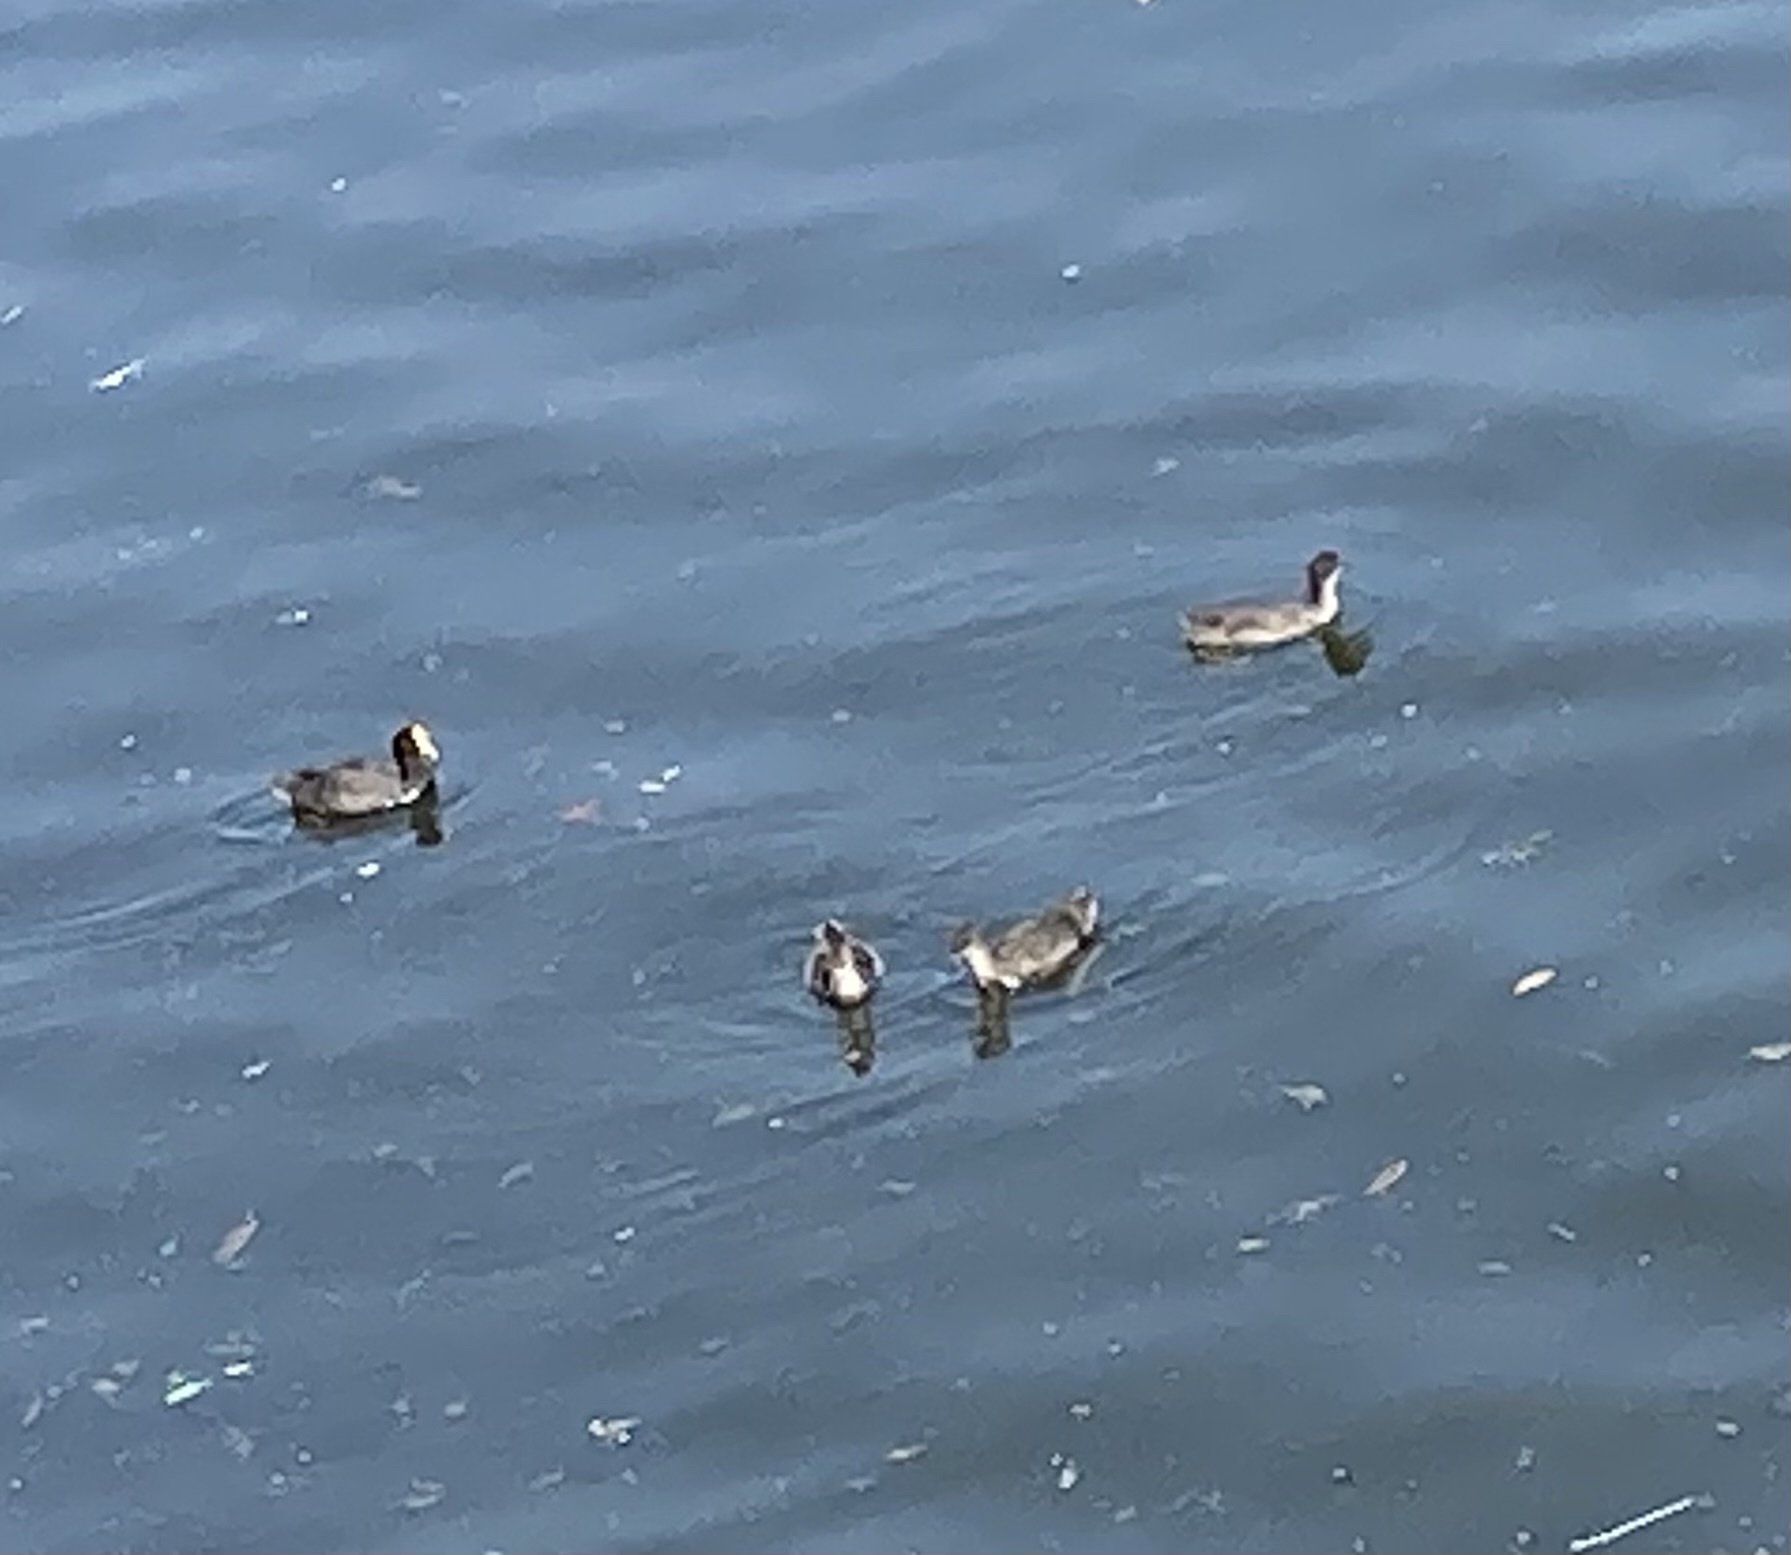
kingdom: Animalia
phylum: Chordata
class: Aves
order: Gruiformes
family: Rallidae
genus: Fulica
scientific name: Fulica leucoptera
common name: White-winged coot
